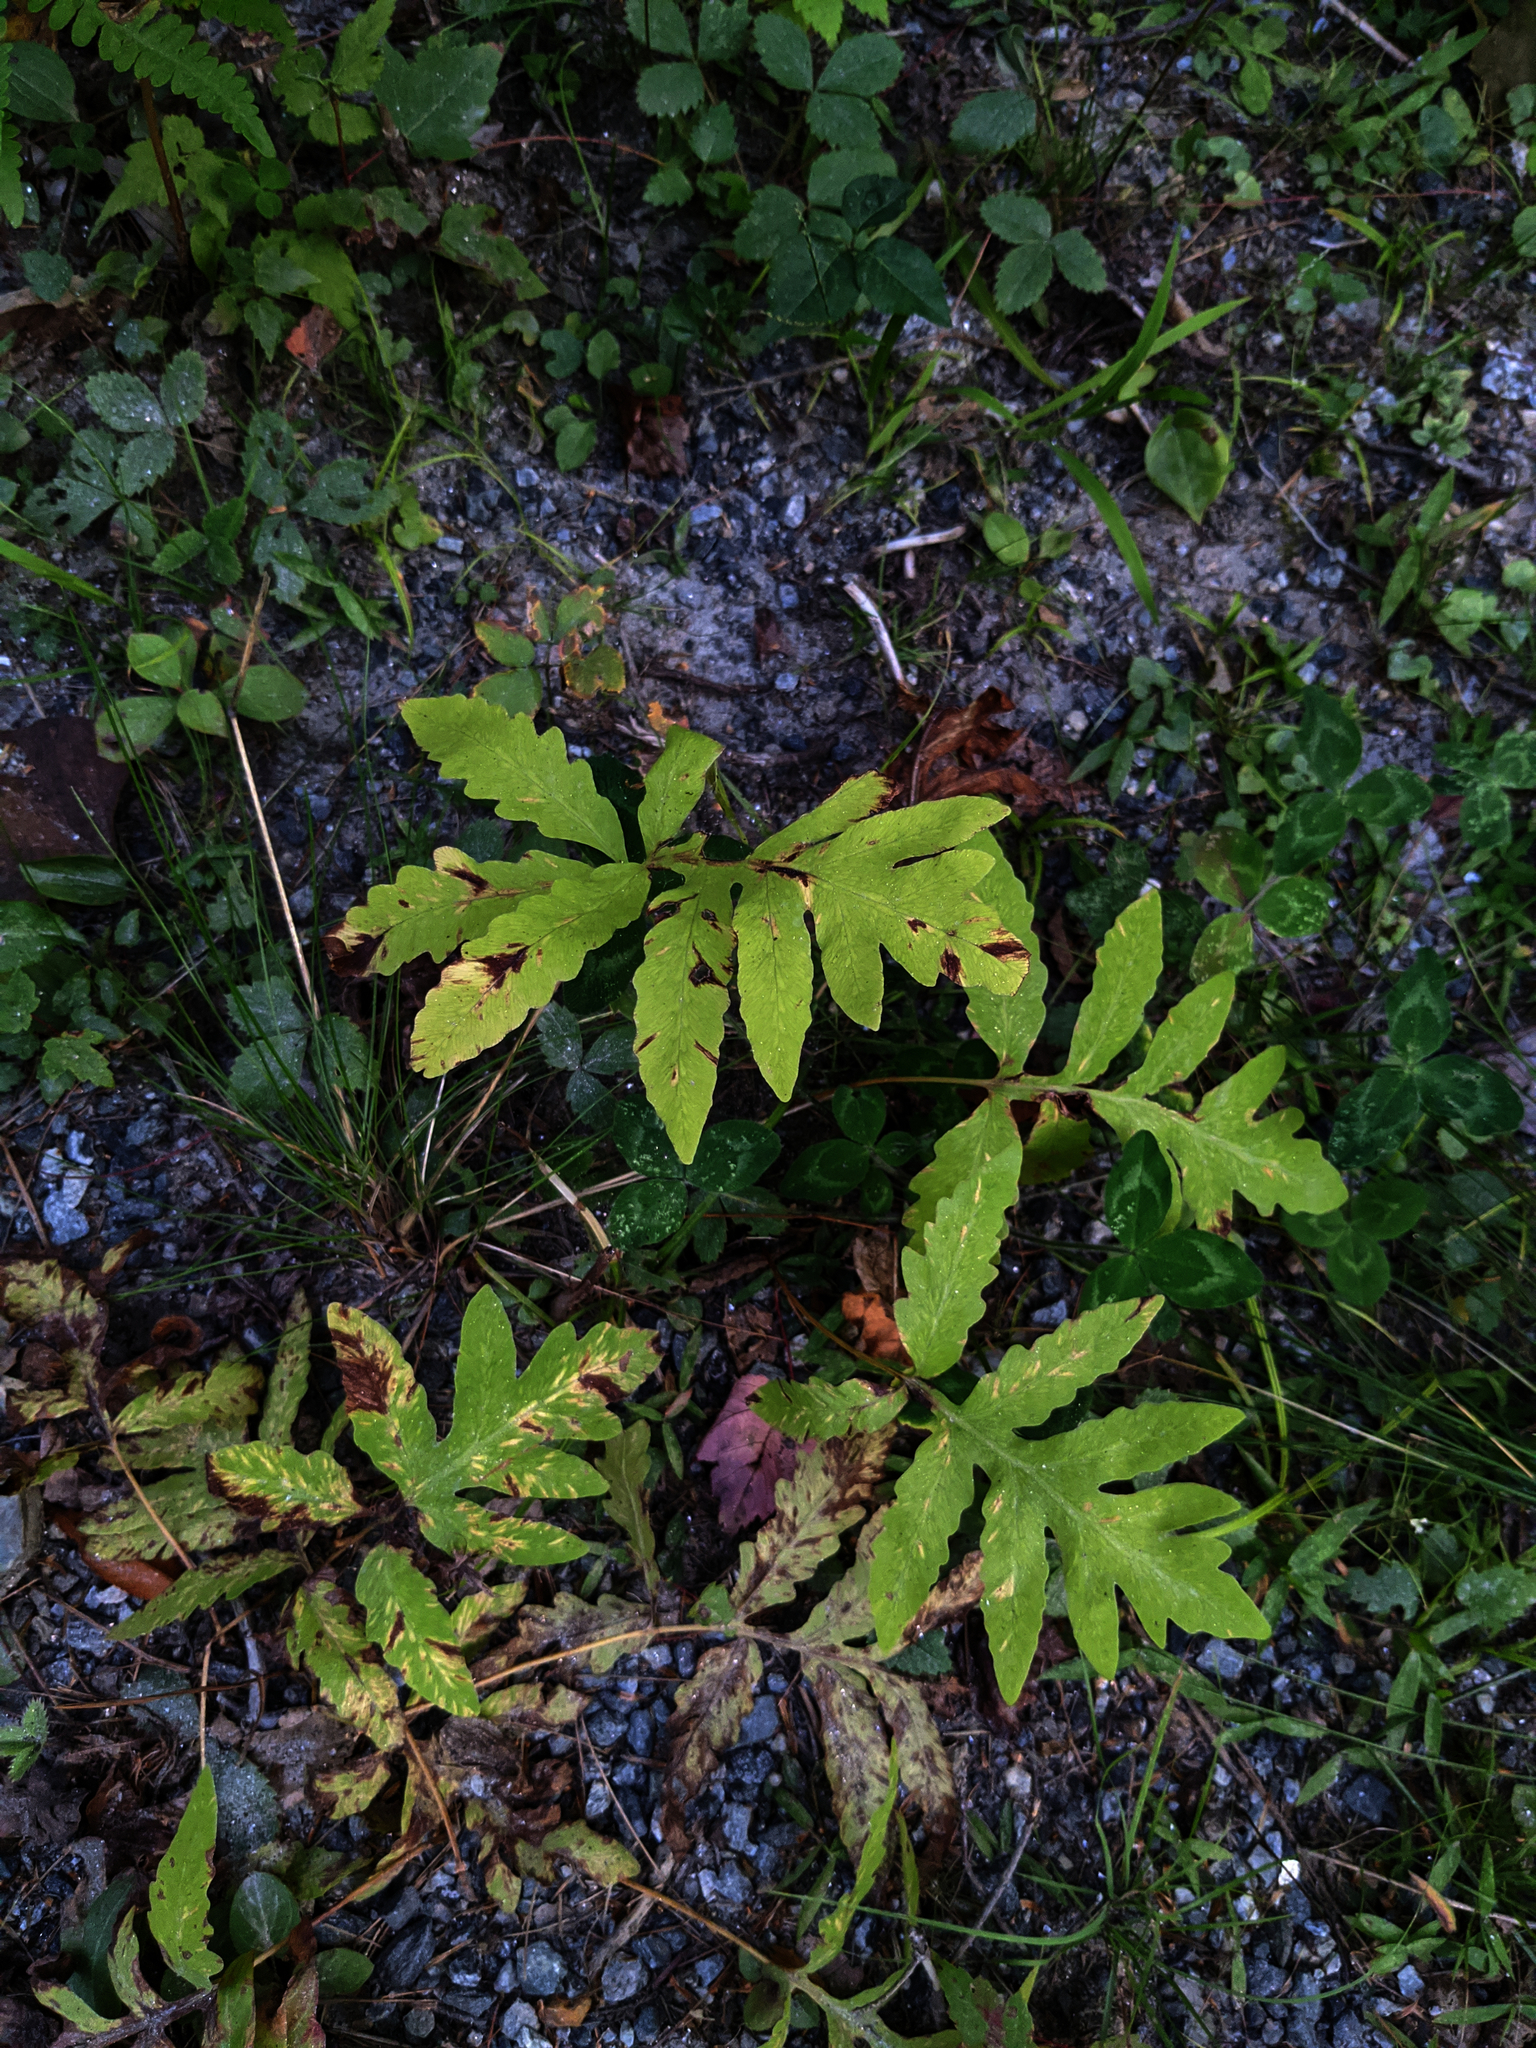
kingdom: Plantae
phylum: Tracheophyta
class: Polypodiopsida
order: Polypodiales
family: Onocleaceae
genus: Onoclea
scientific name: Onoclea sensibilis
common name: Sensitive fern
